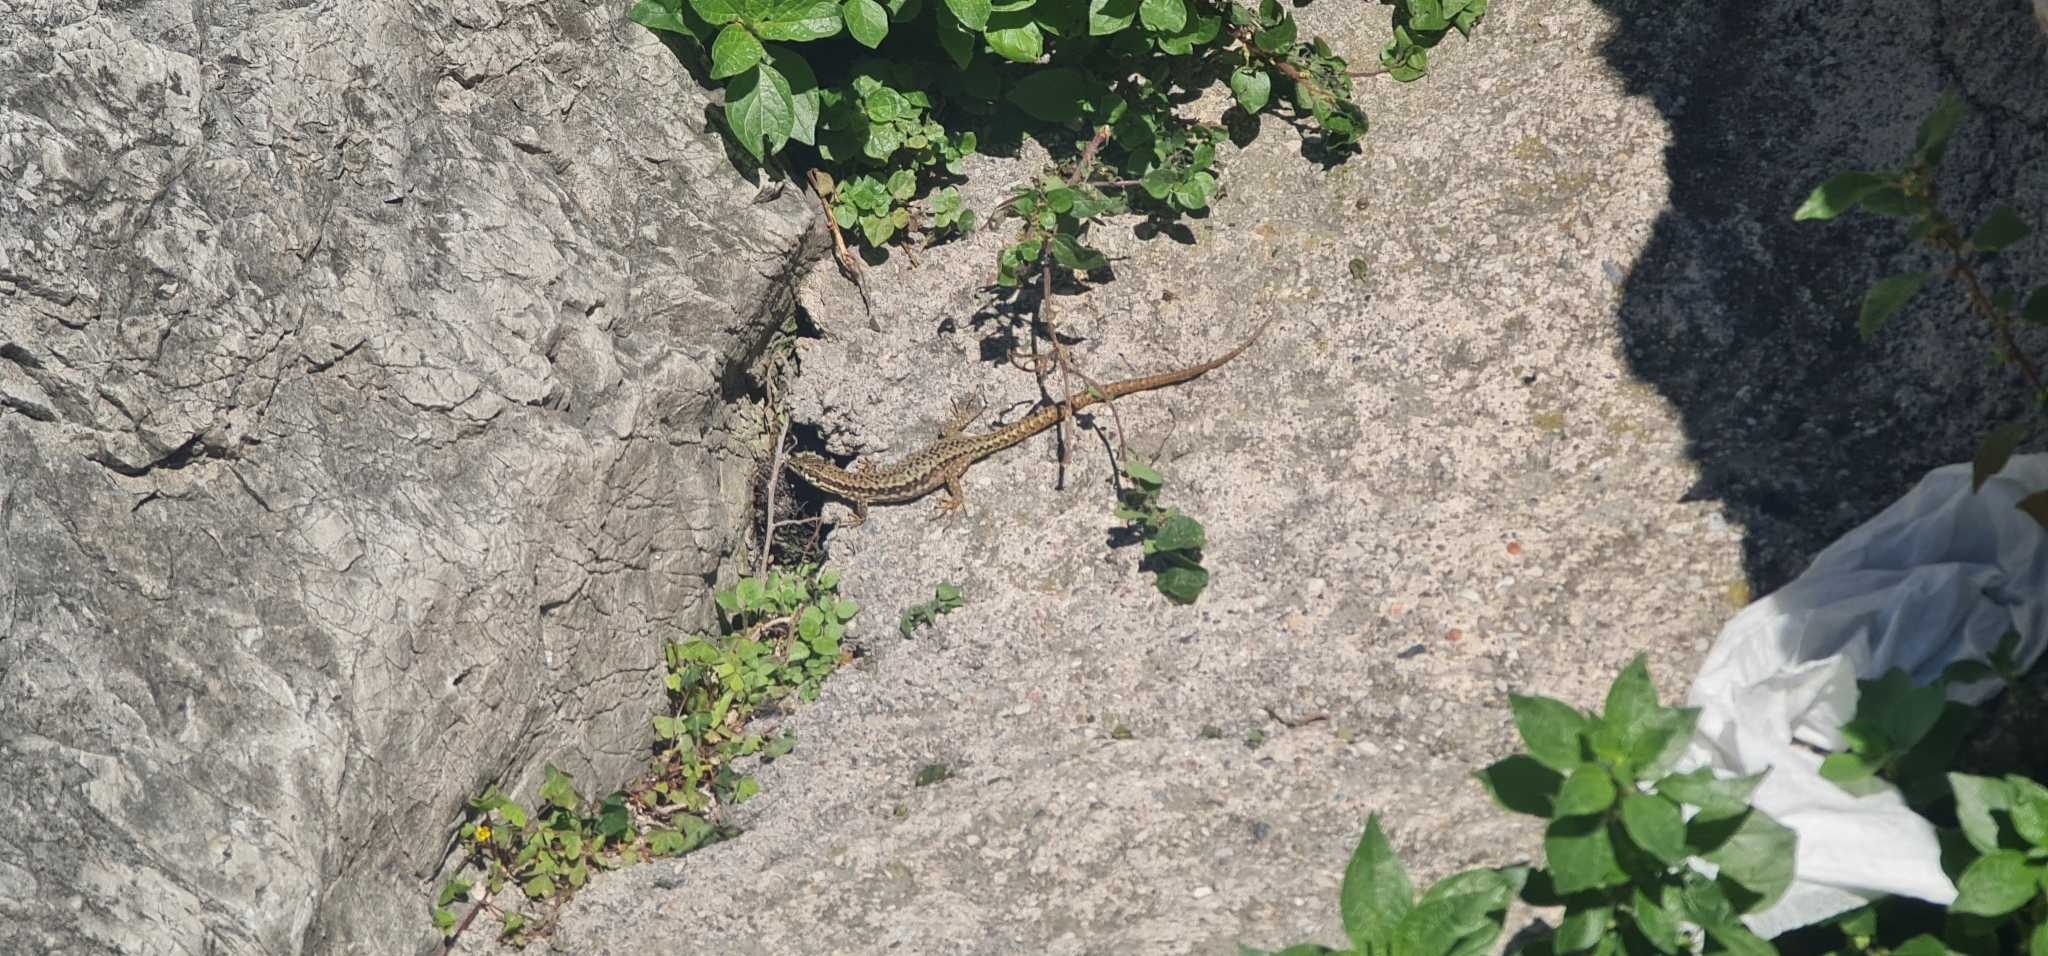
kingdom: Animalia
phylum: Chordata
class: Squamata
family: Lacertidae
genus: Podarcis
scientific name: Podarcis muralis
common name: Common wall lizard
